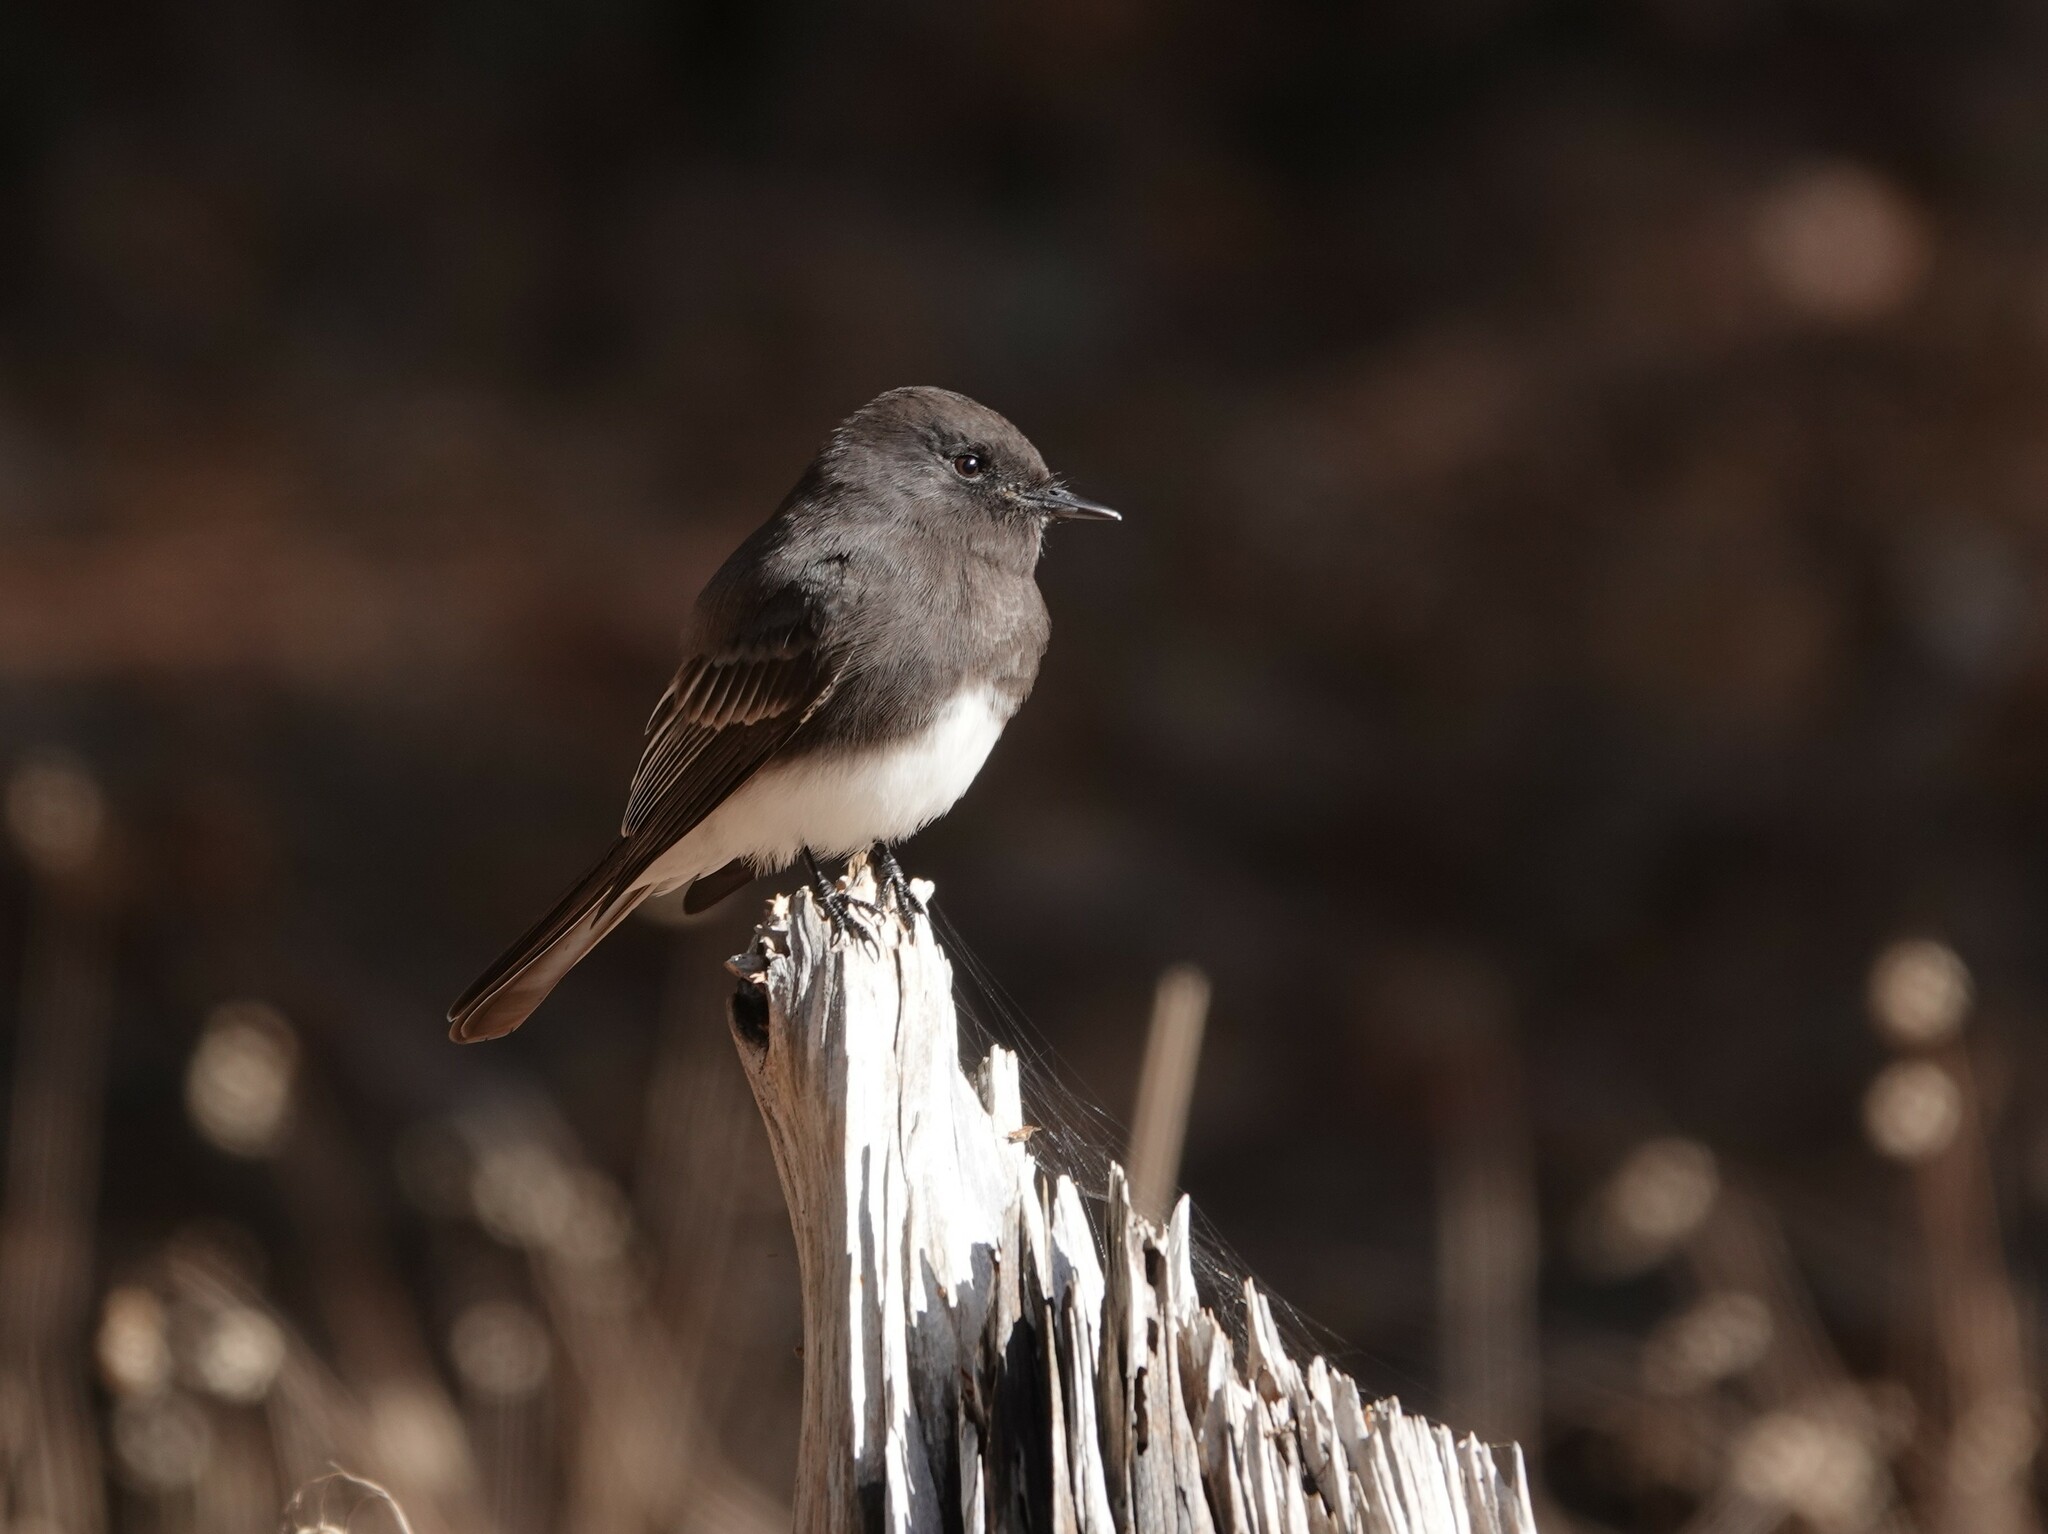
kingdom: Animalia
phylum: Chordata
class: Aves
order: Passeriformes
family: Tyrannidae
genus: Sayornis
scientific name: Sayornis nigricans
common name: Black phoebe
